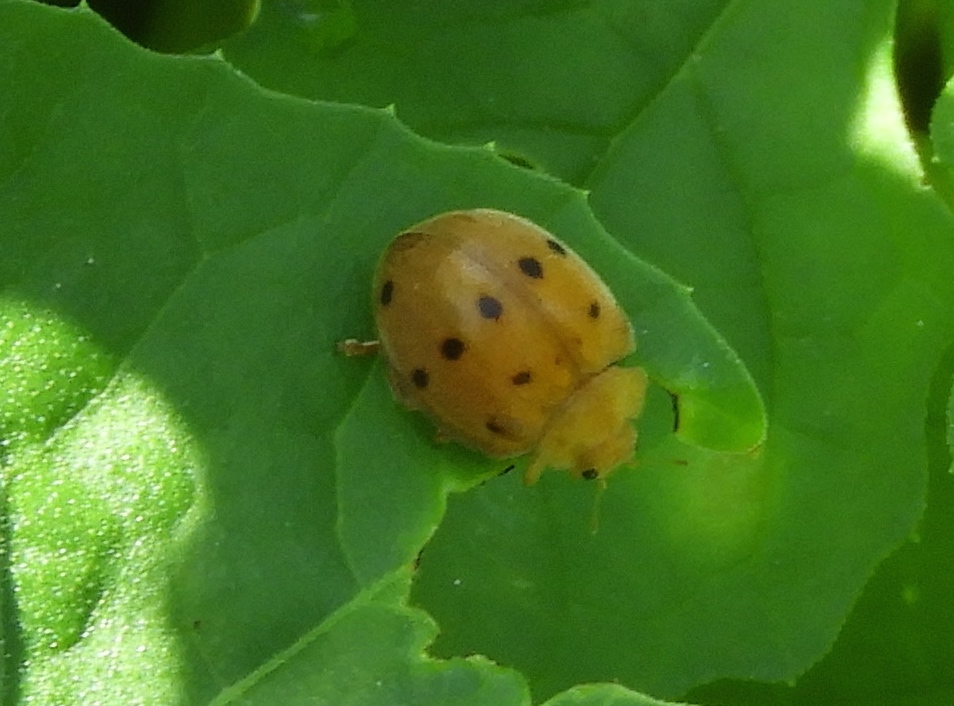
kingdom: Animalia
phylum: Arthropoda
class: Insecta
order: Coleoptera
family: Coccinellidae
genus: Epilachna
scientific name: Epilachna tredecimnotata
